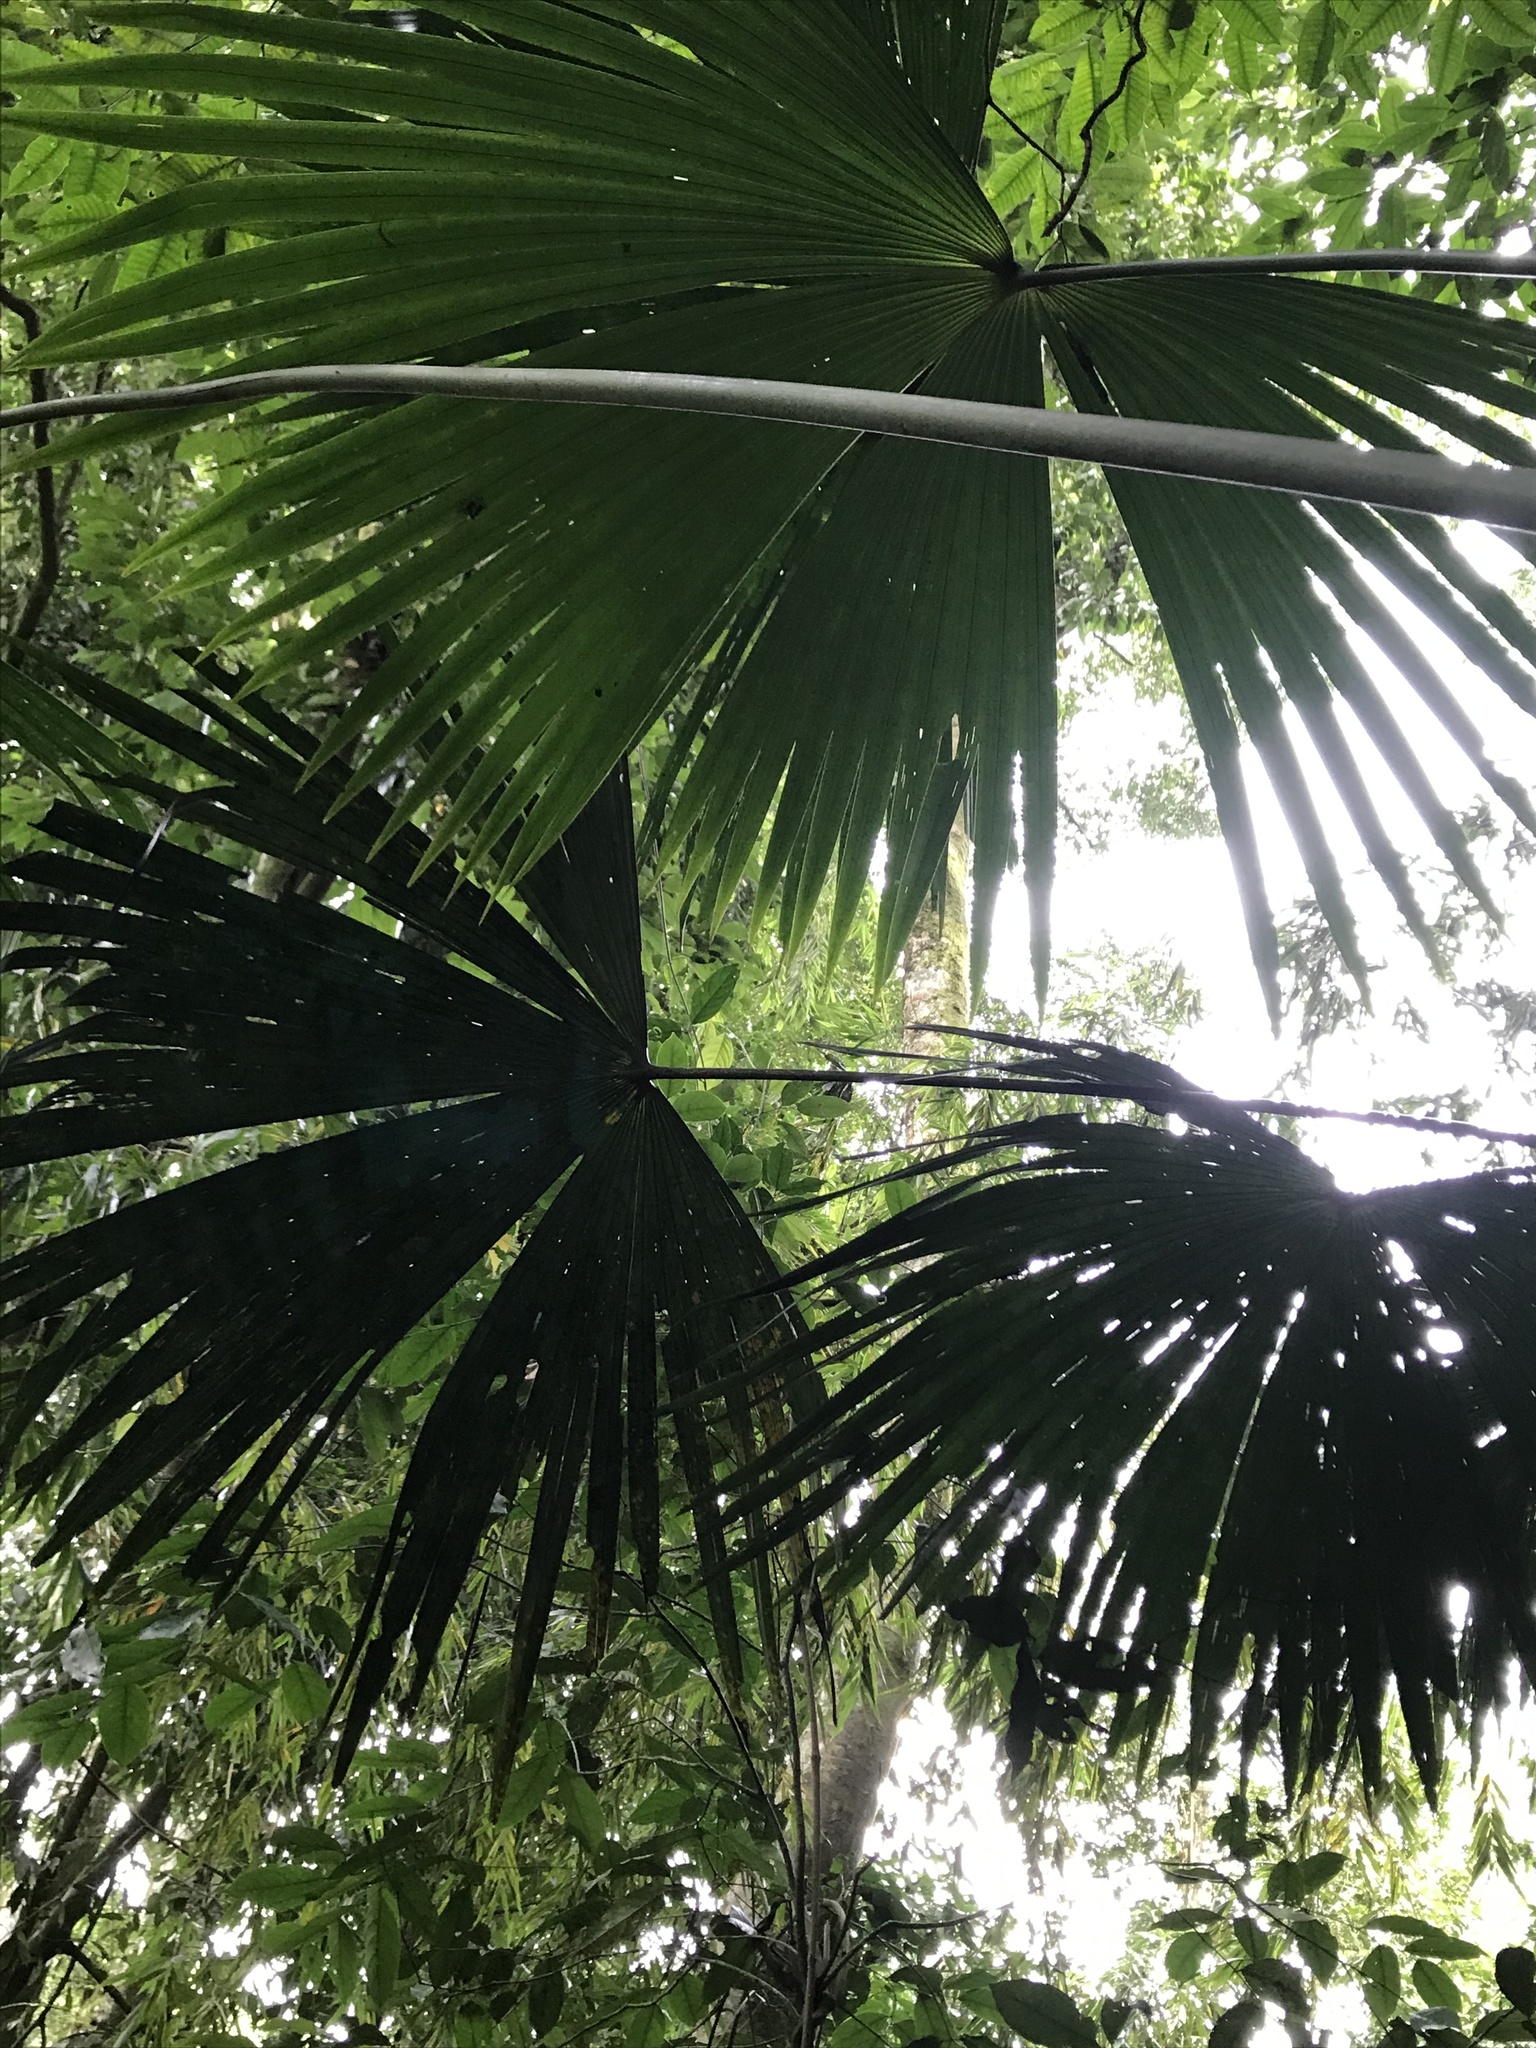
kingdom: Plantae
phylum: Tracheophyta
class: Liliopsida
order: Pandanales
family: Cyclanthaceae
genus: Carludovica
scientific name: Carludovica palmata
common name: Panama hat plant
